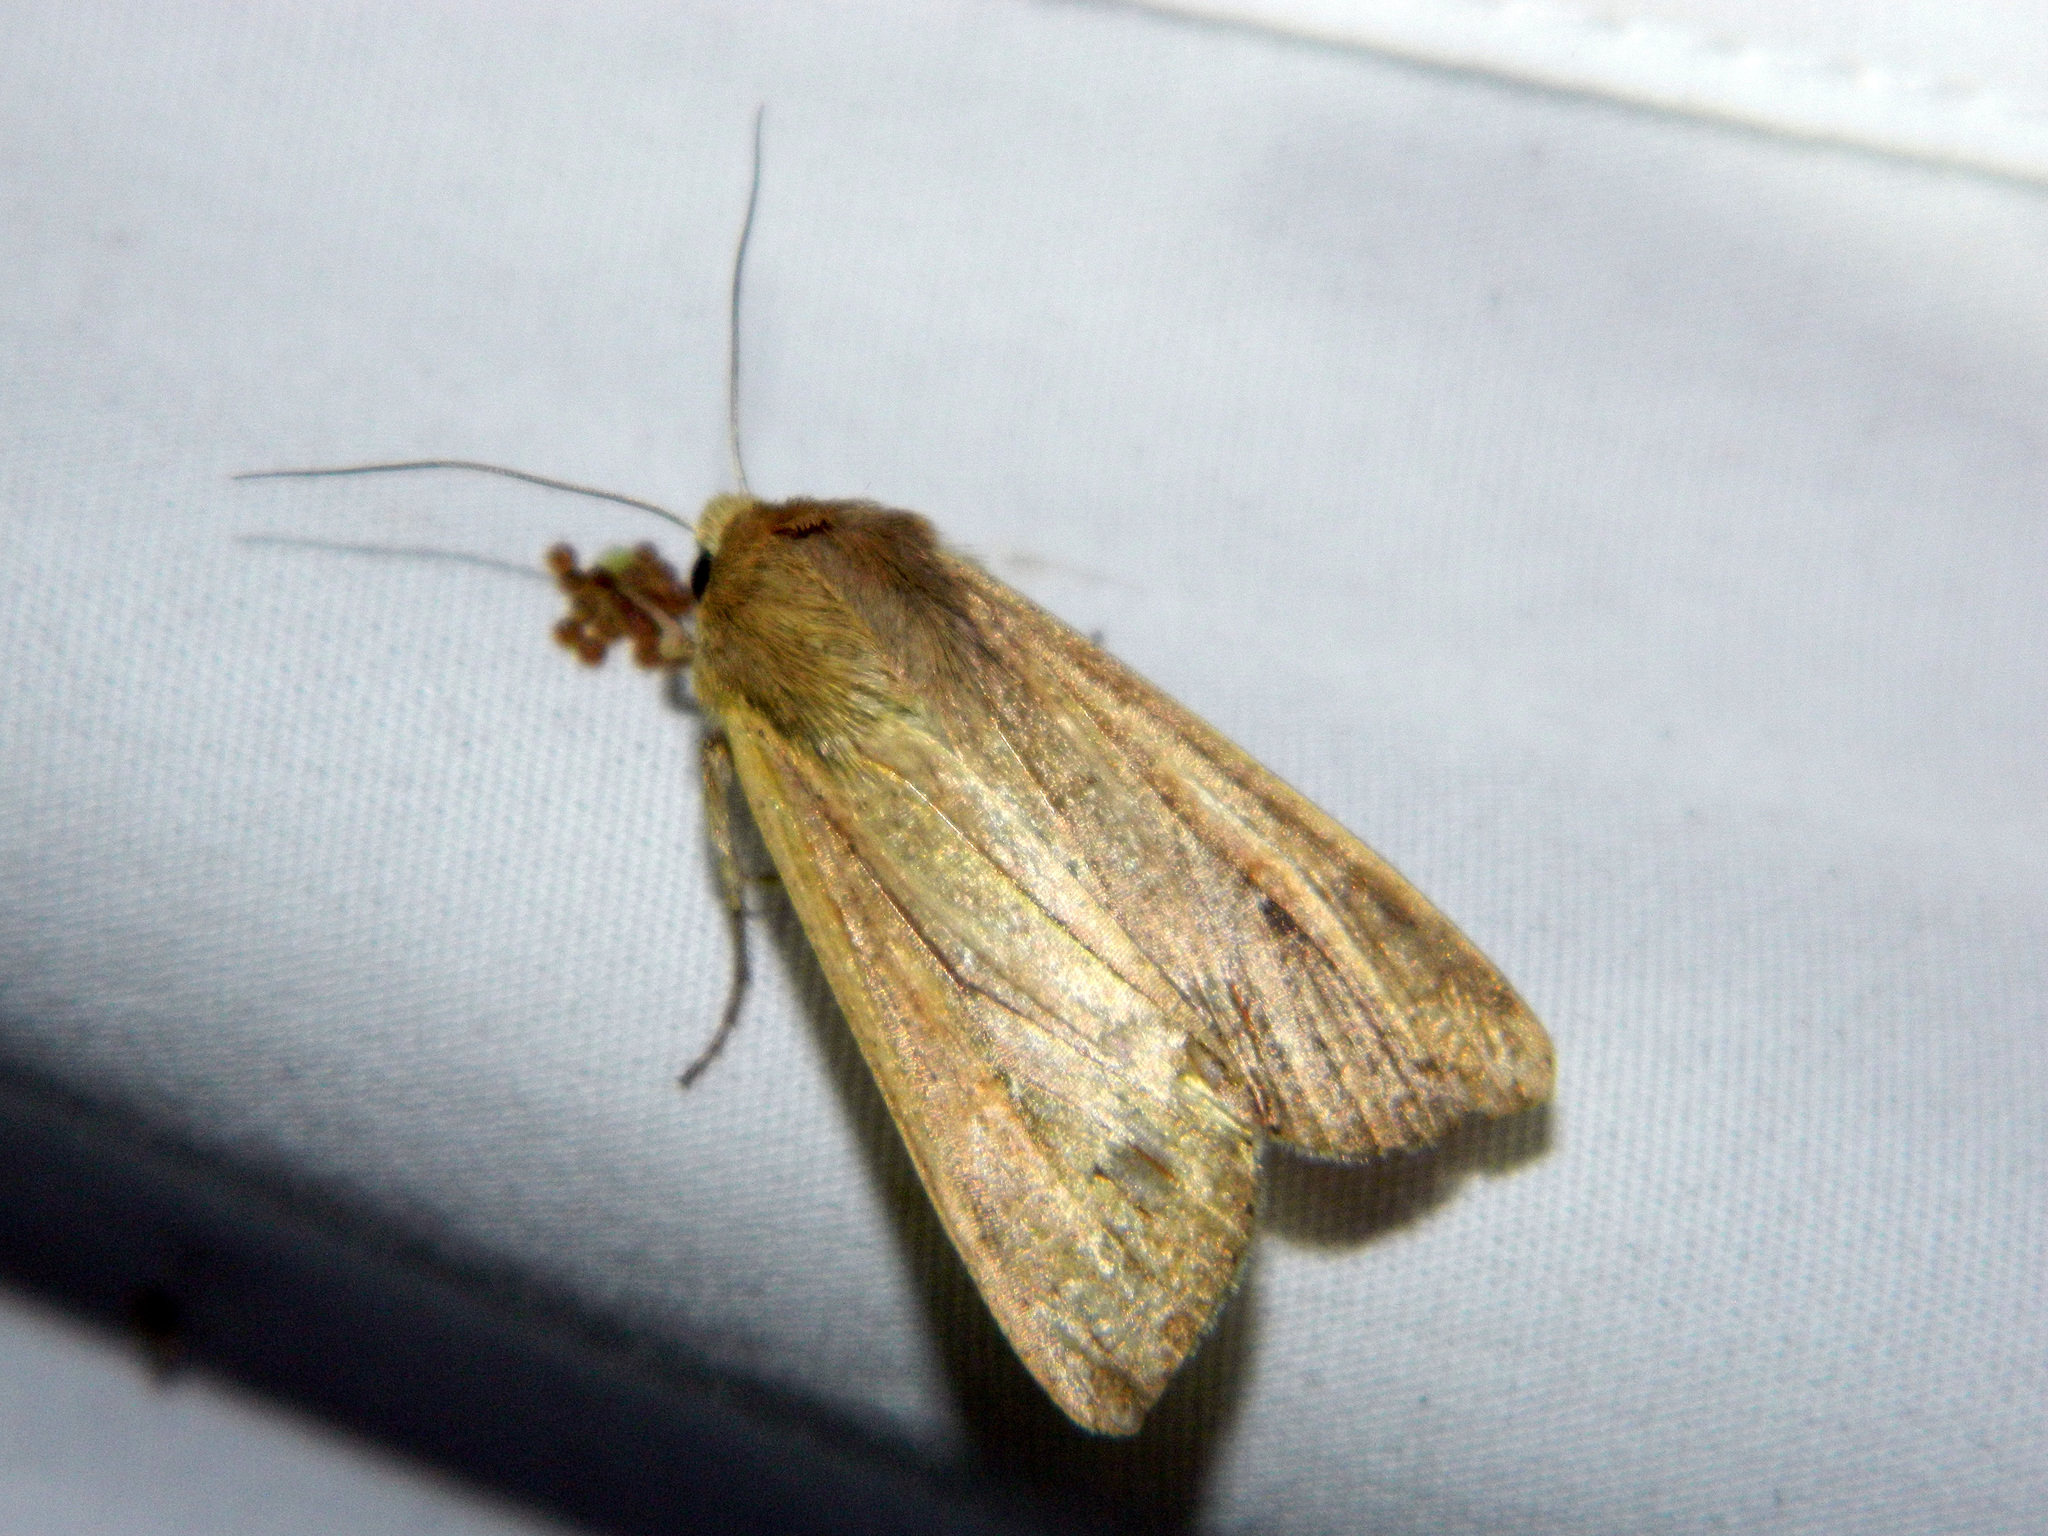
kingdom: Animalia
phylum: Arthropoda
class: Insecta
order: Lepidoptera
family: Noctuidae
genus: Mythimna
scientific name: Mythimna unipuncta
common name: White-speck
